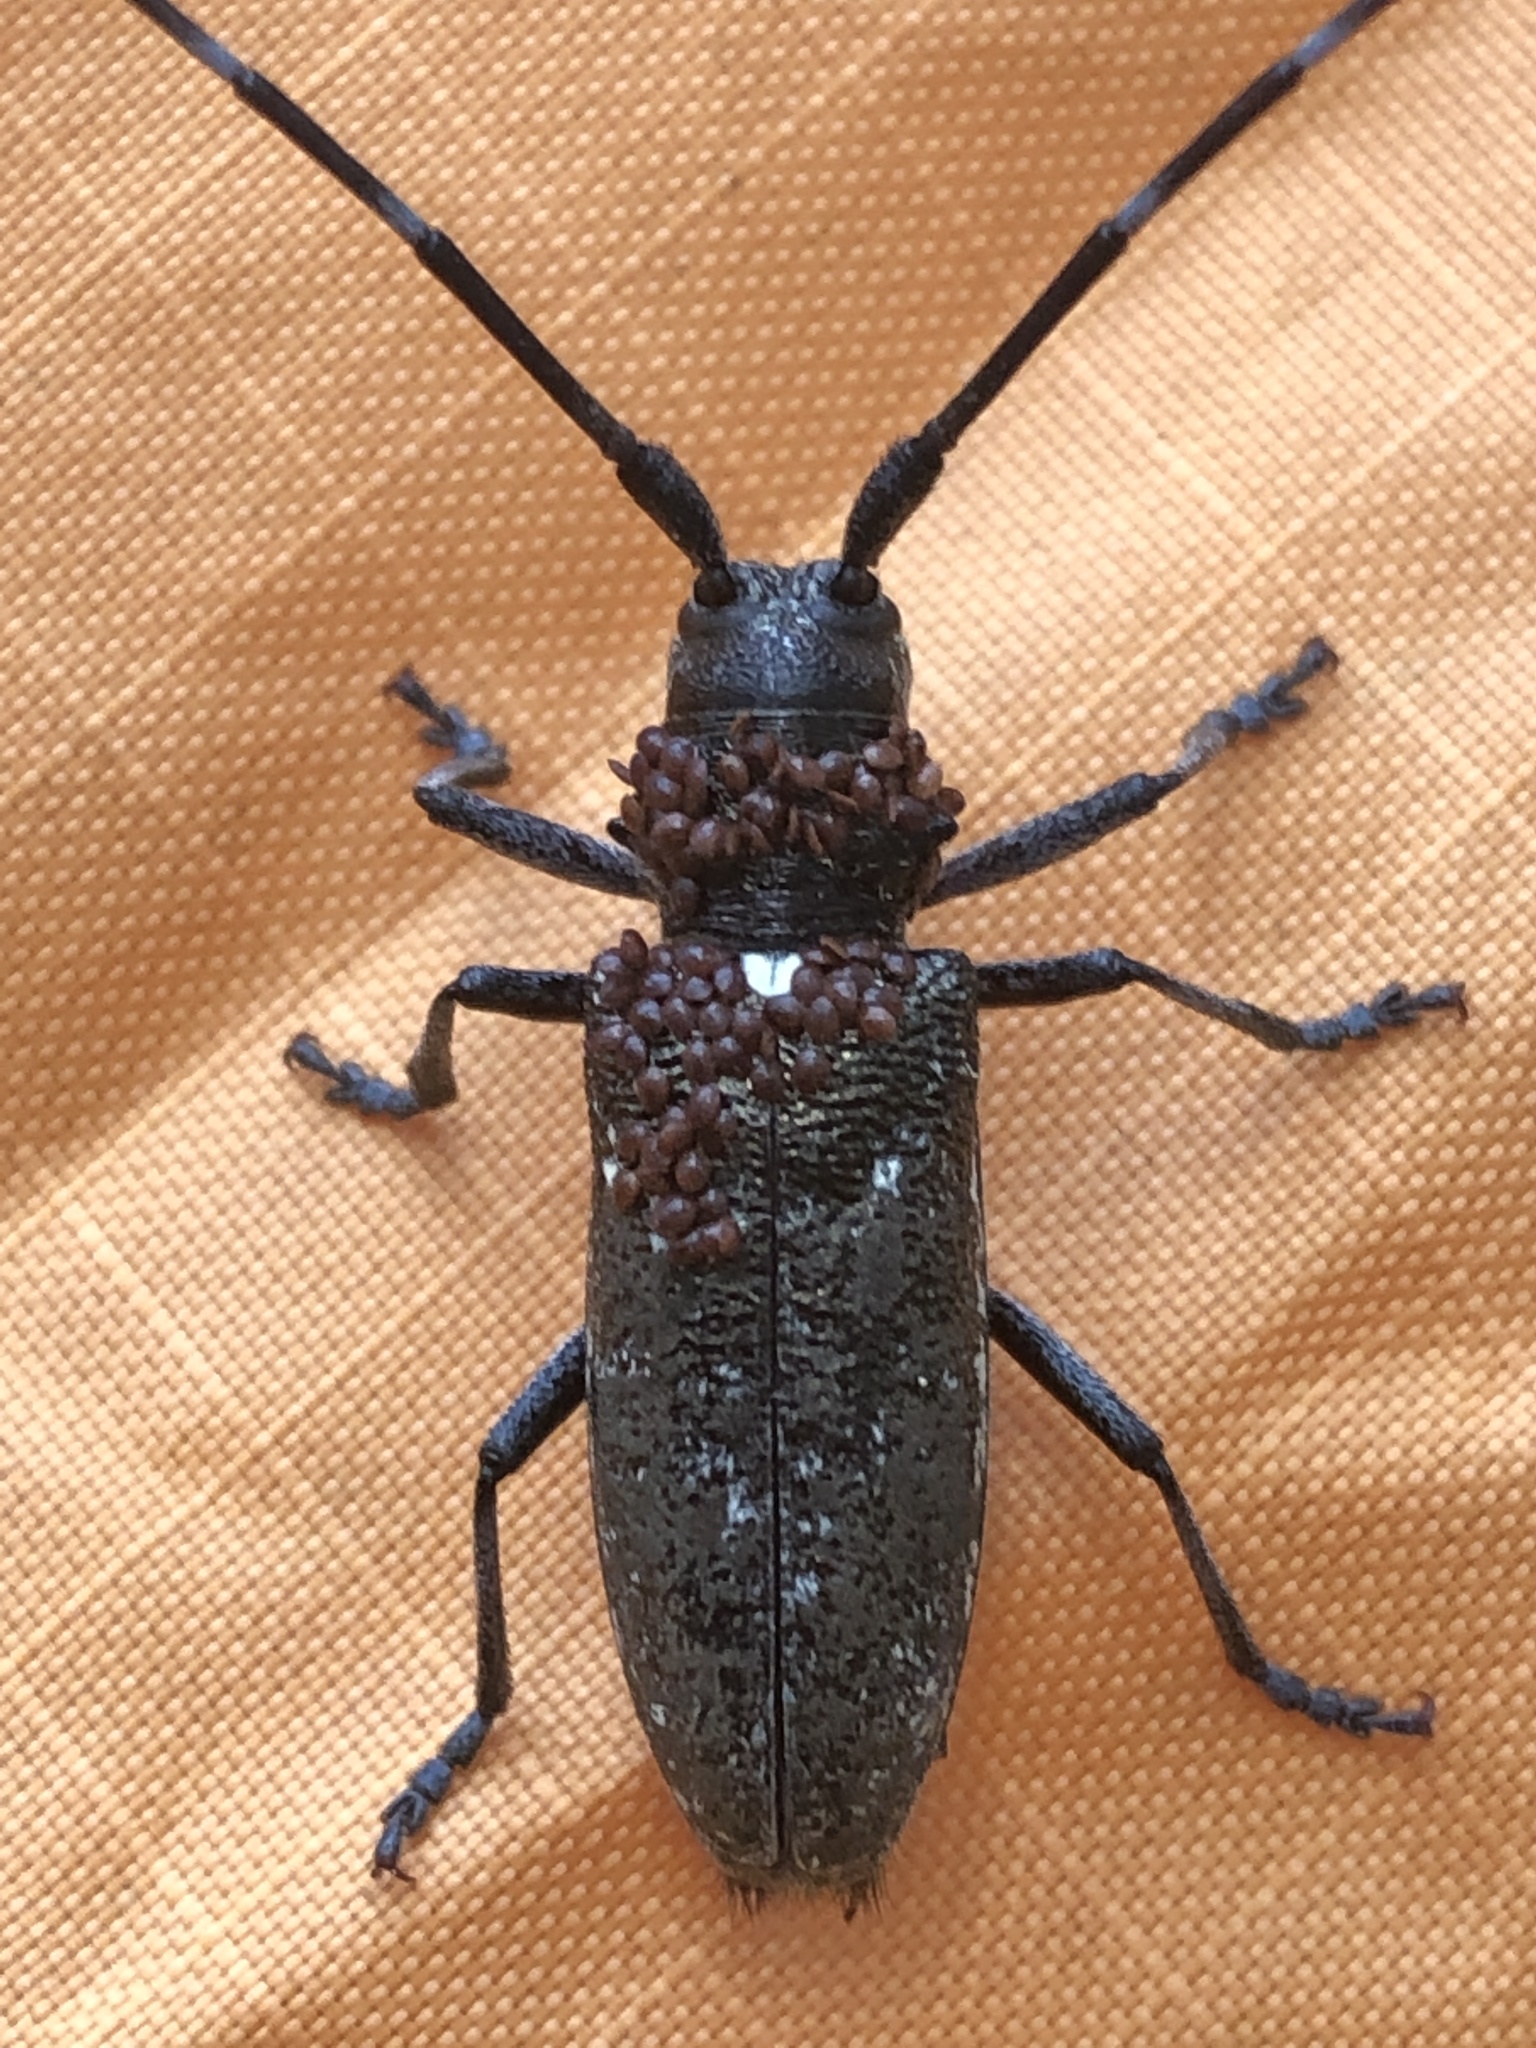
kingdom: Animalia
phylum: Arthropoda
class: Insecta
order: Coleoptera
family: Cerambycidae
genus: Monochamus
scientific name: Monochamus scutellatus
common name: White-spotted sawyer beetle
